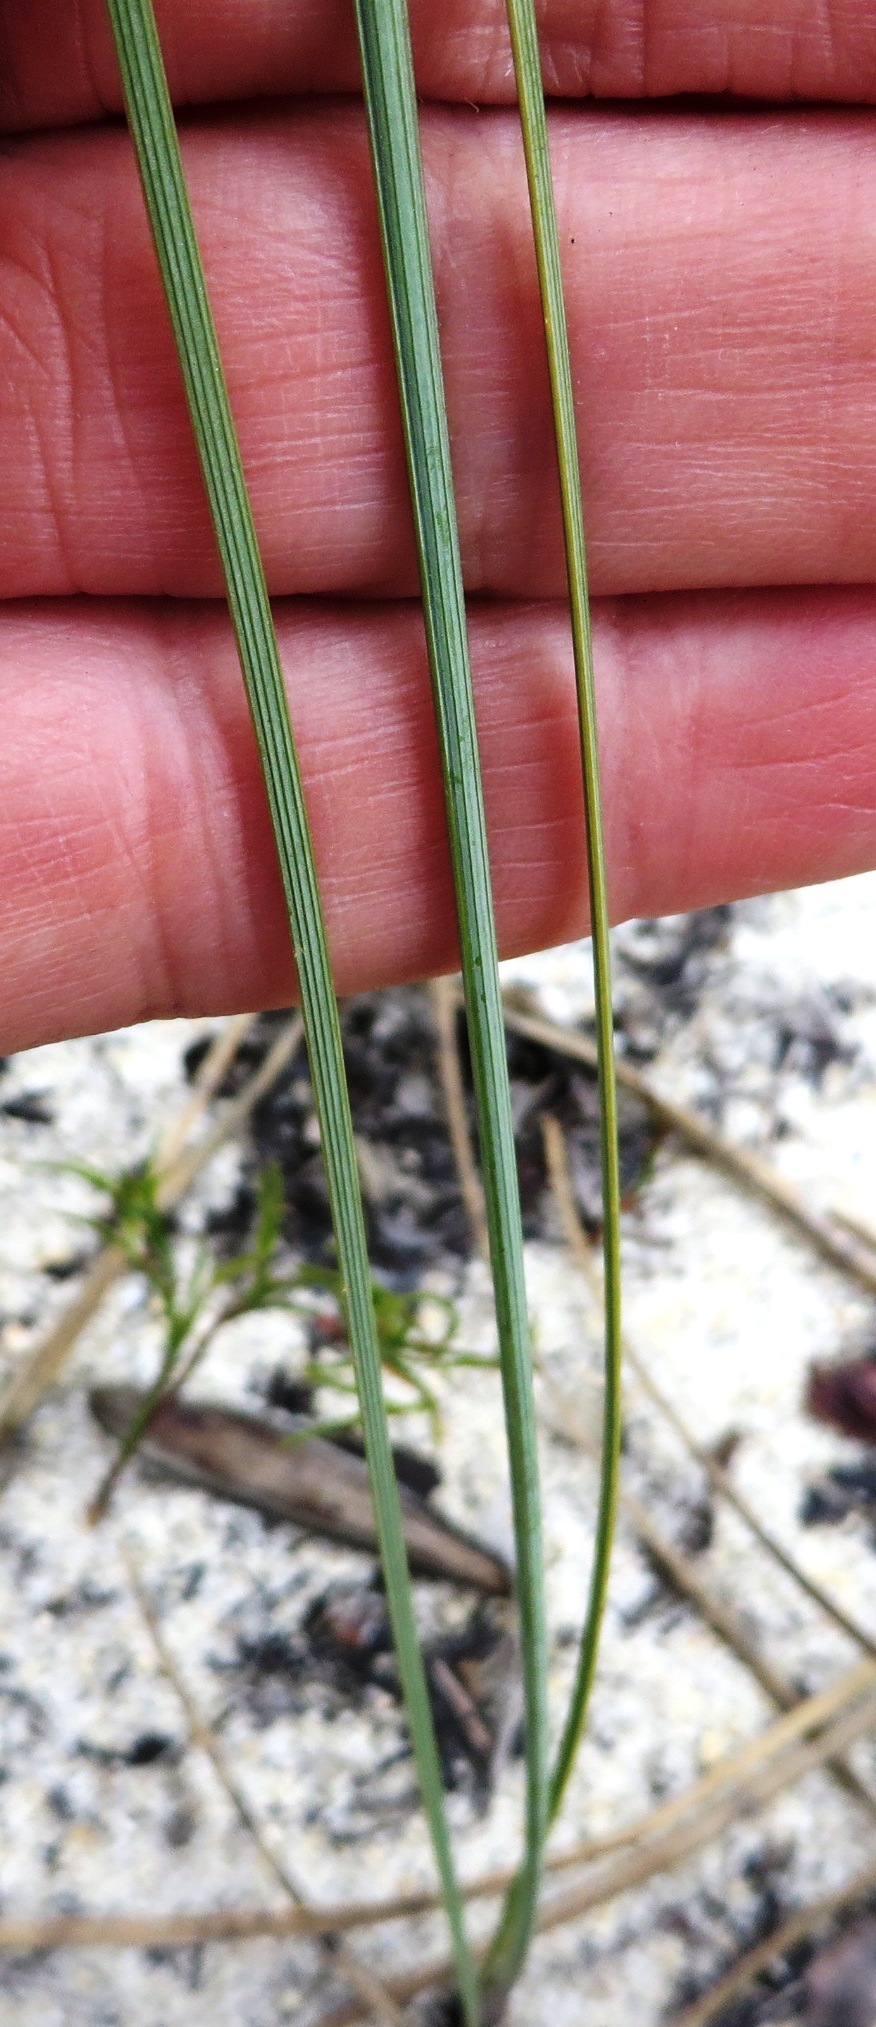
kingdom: Plantae
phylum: Tracheophyta
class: Liliopsida
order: Asparagales
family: Iridaceae
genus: Bobartia
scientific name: Bobartia filiformis
